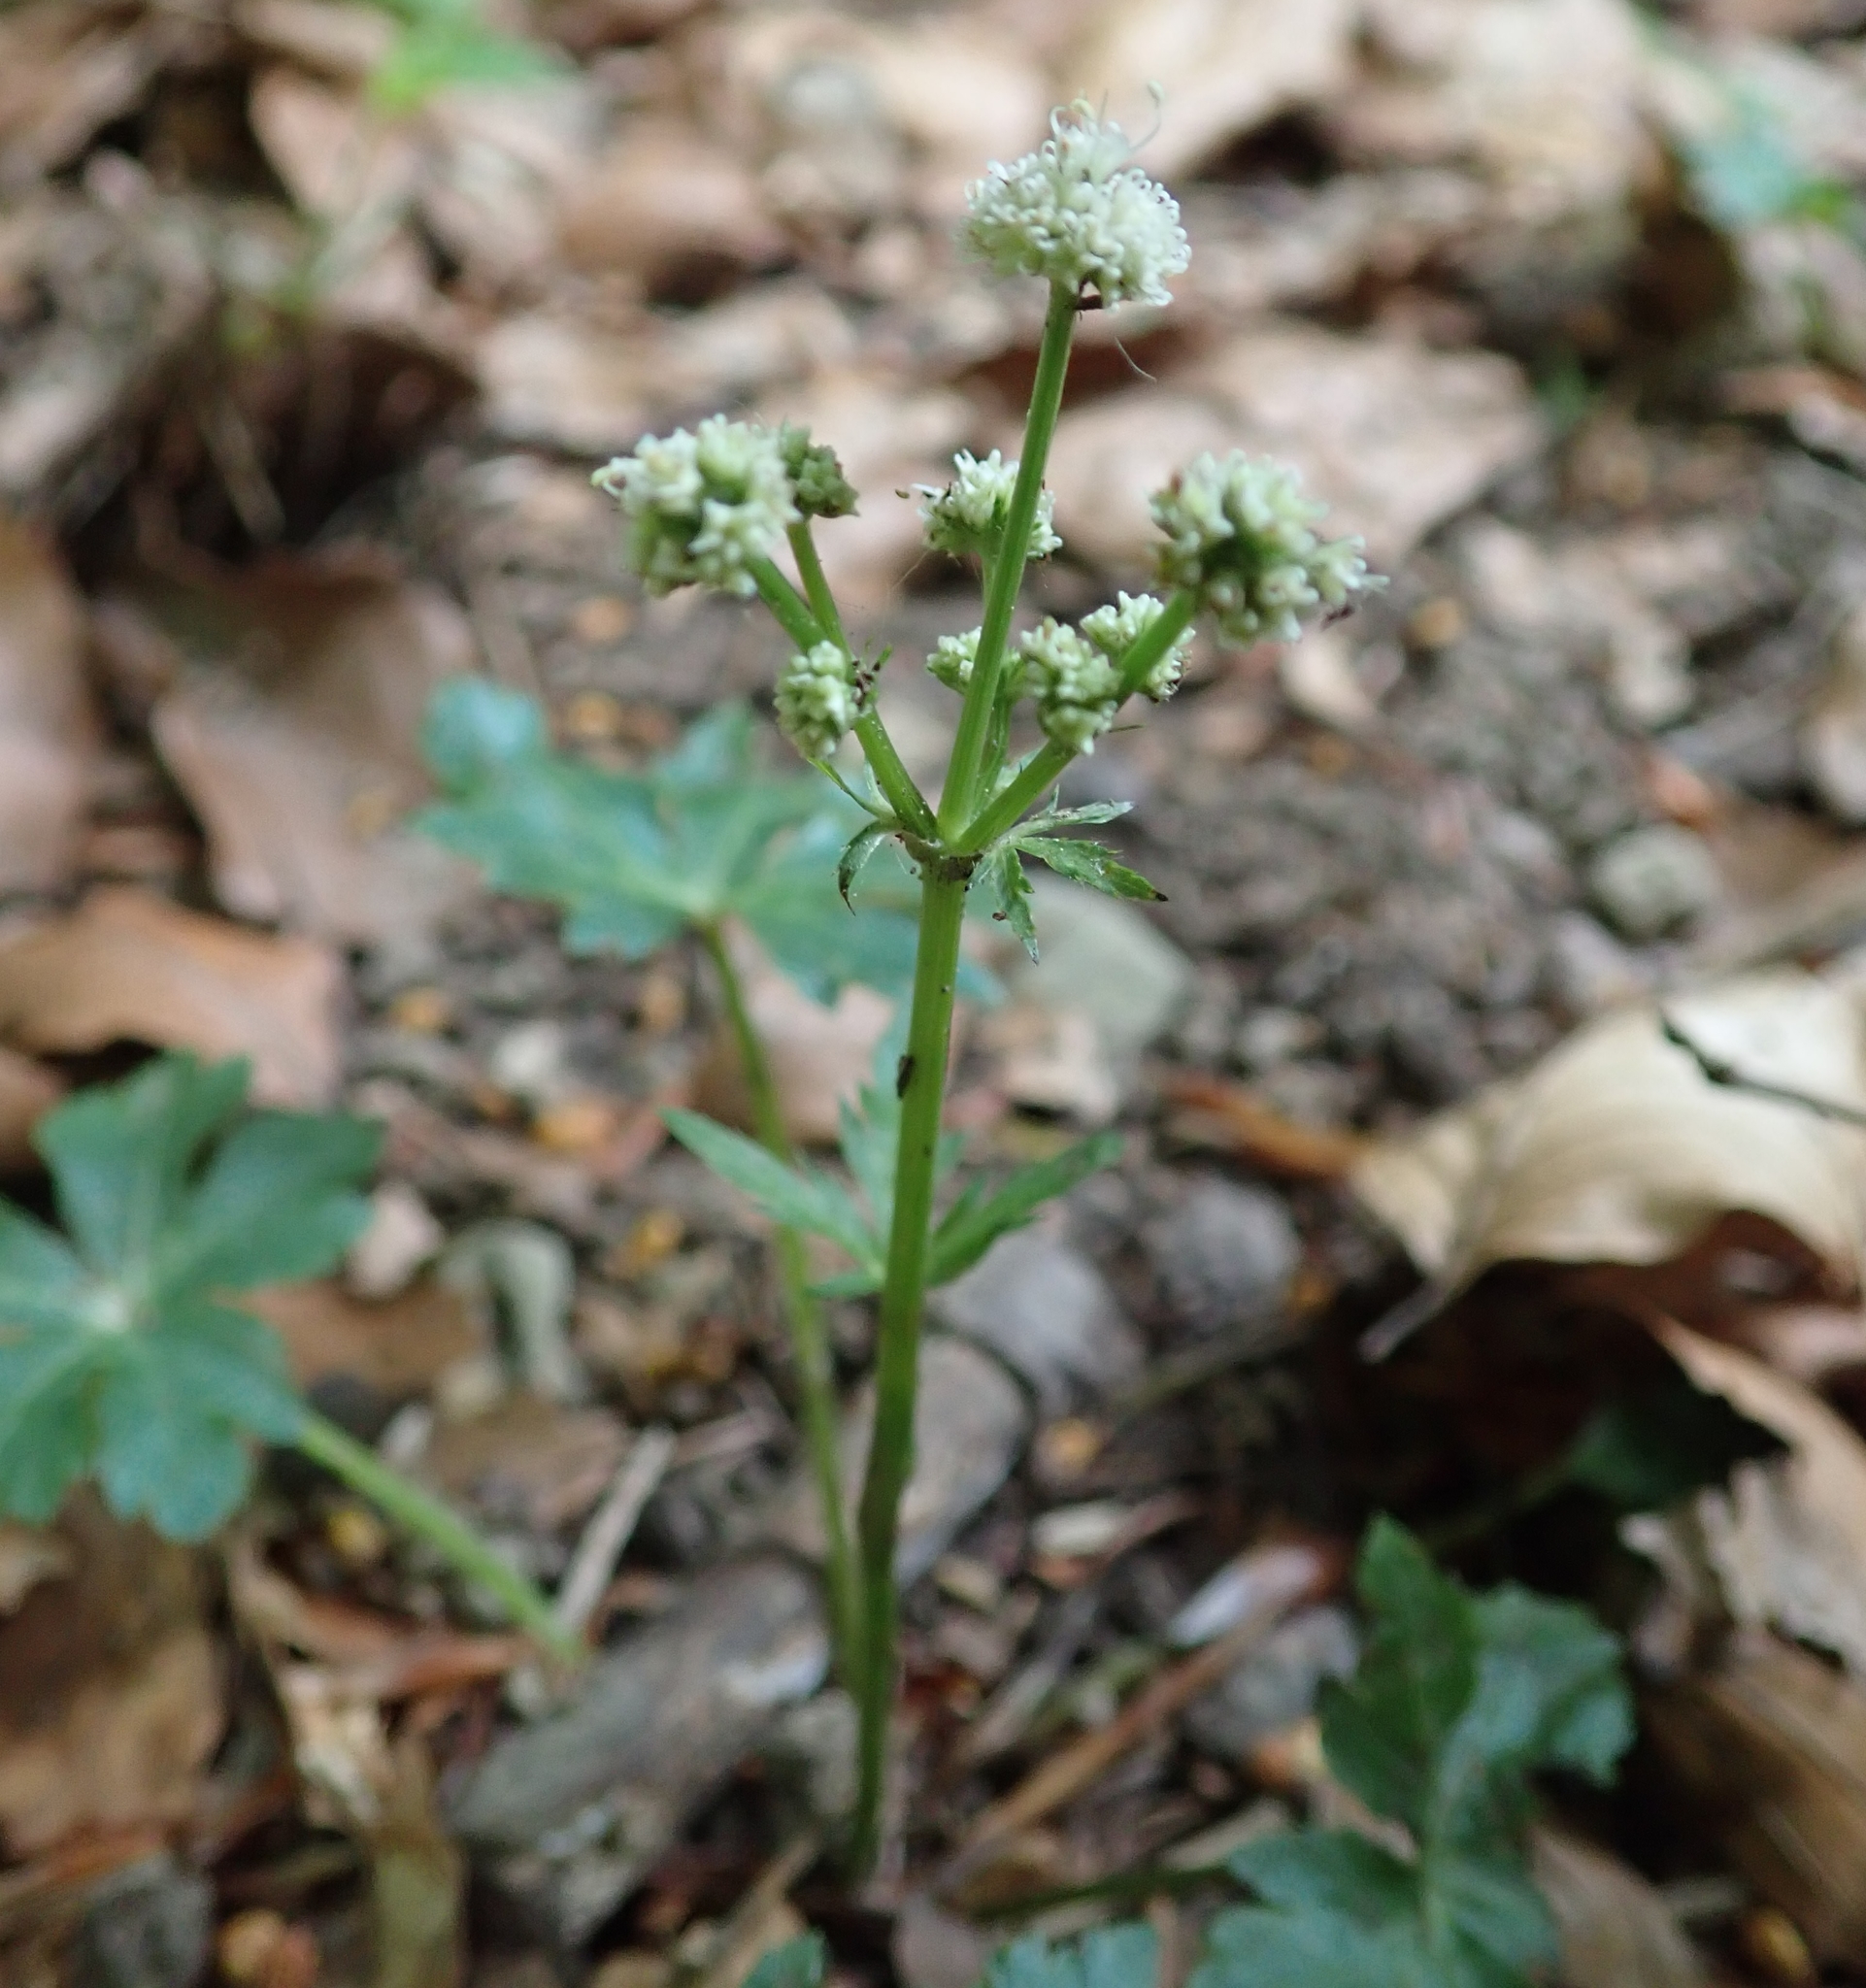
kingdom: Plantae
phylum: Tracheophyta
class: Magnoliopsida
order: Apiales
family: Apiaceae
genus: Sanicula
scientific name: Sanicula europaea
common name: Sanicle
